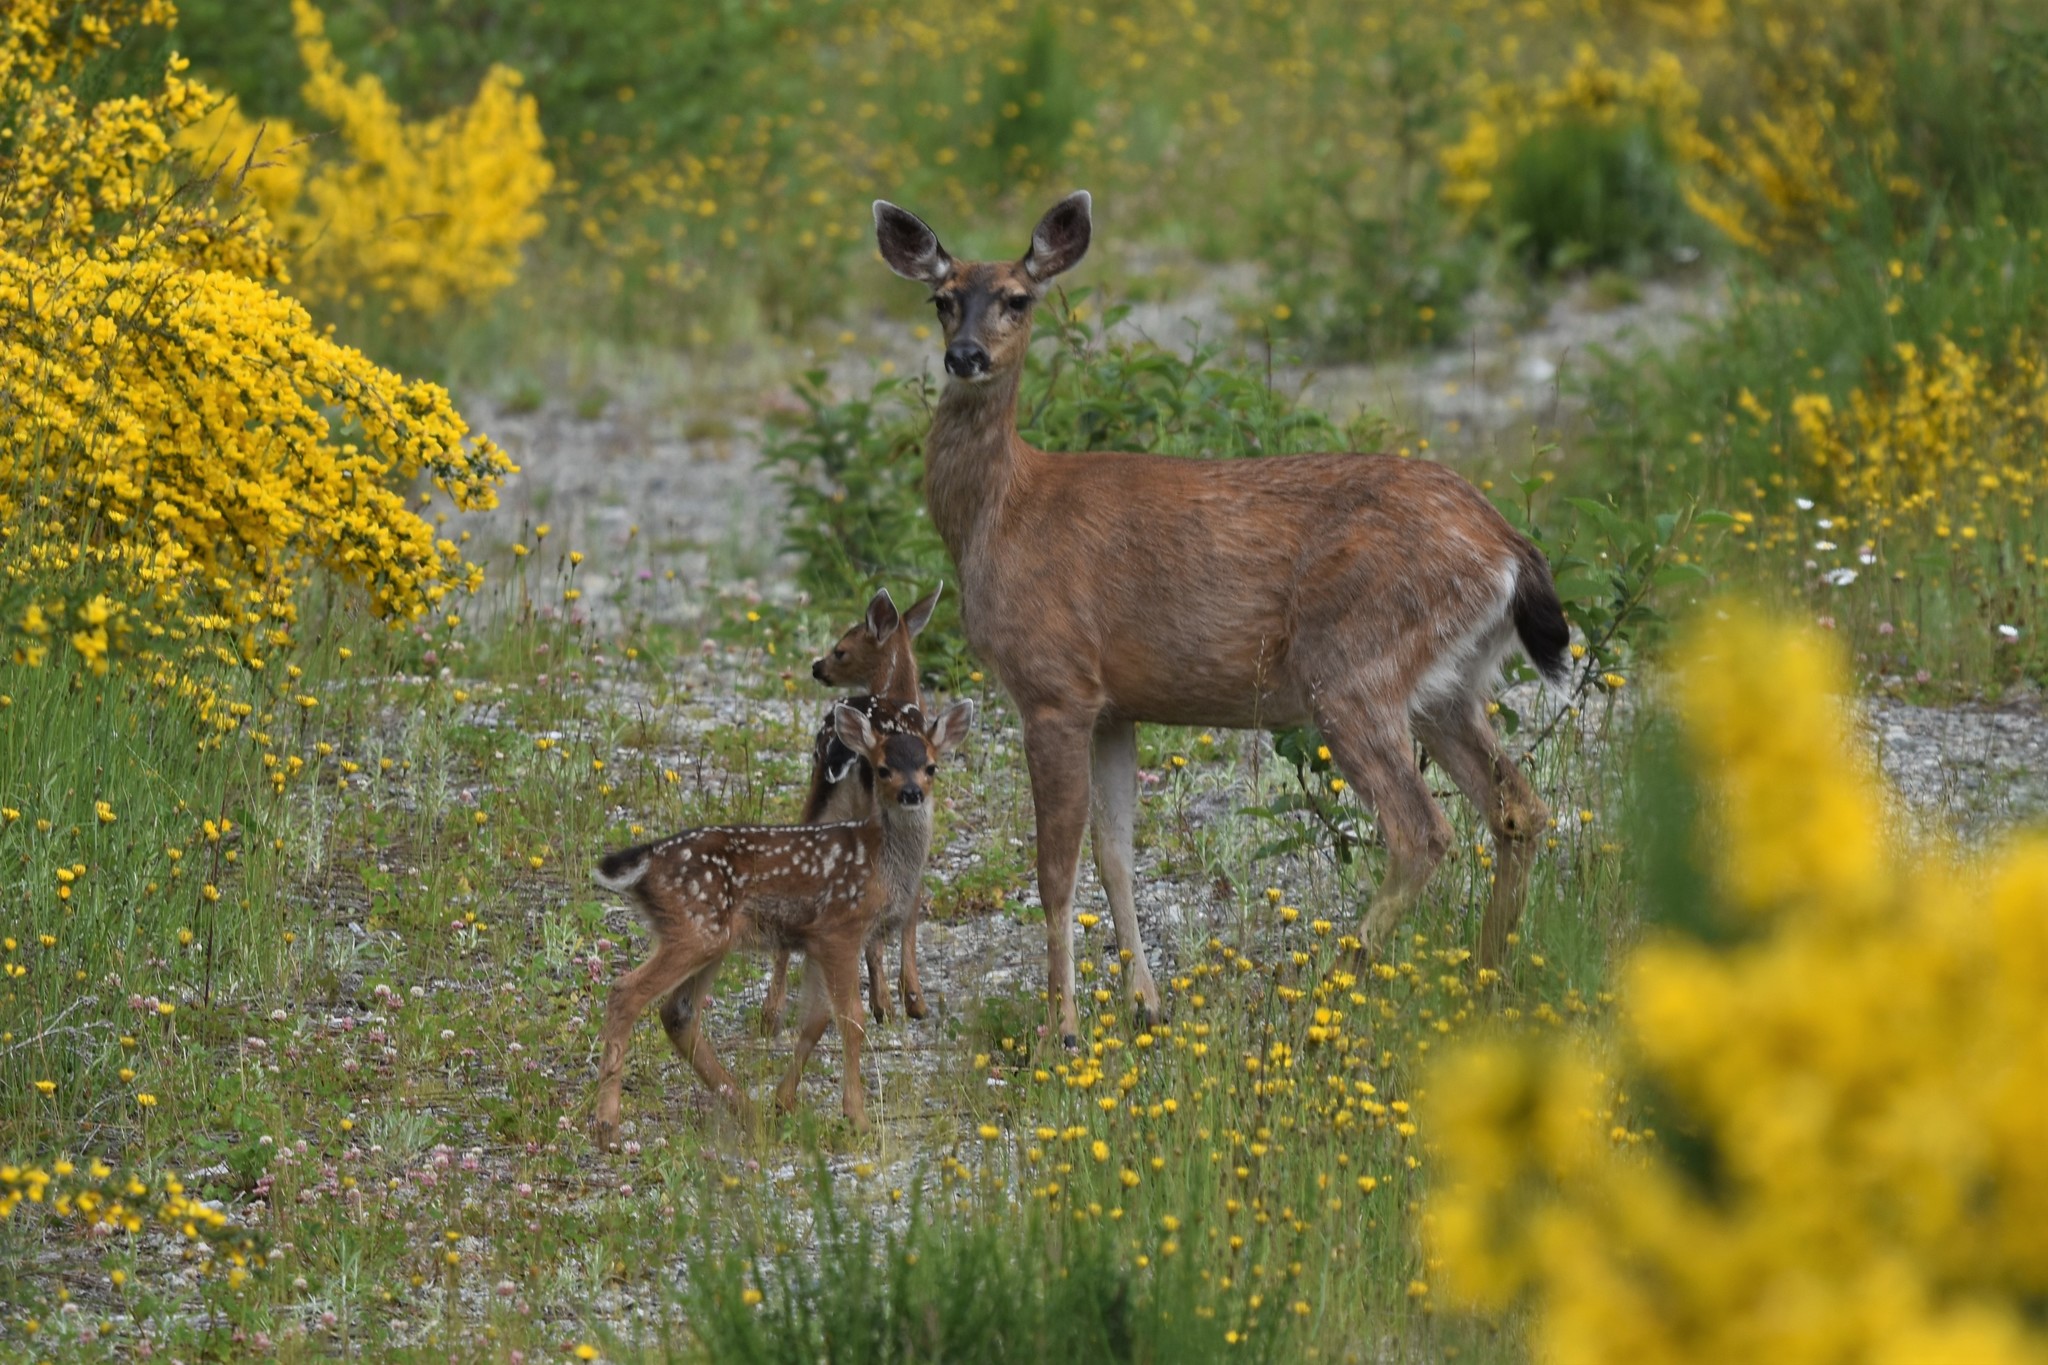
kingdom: Animalia
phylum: Chordata
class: Mammalia
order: Artiodactyla
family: Cervidae
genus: Odocoileus
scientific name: Odocoileus hemionus
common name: Mule deer
